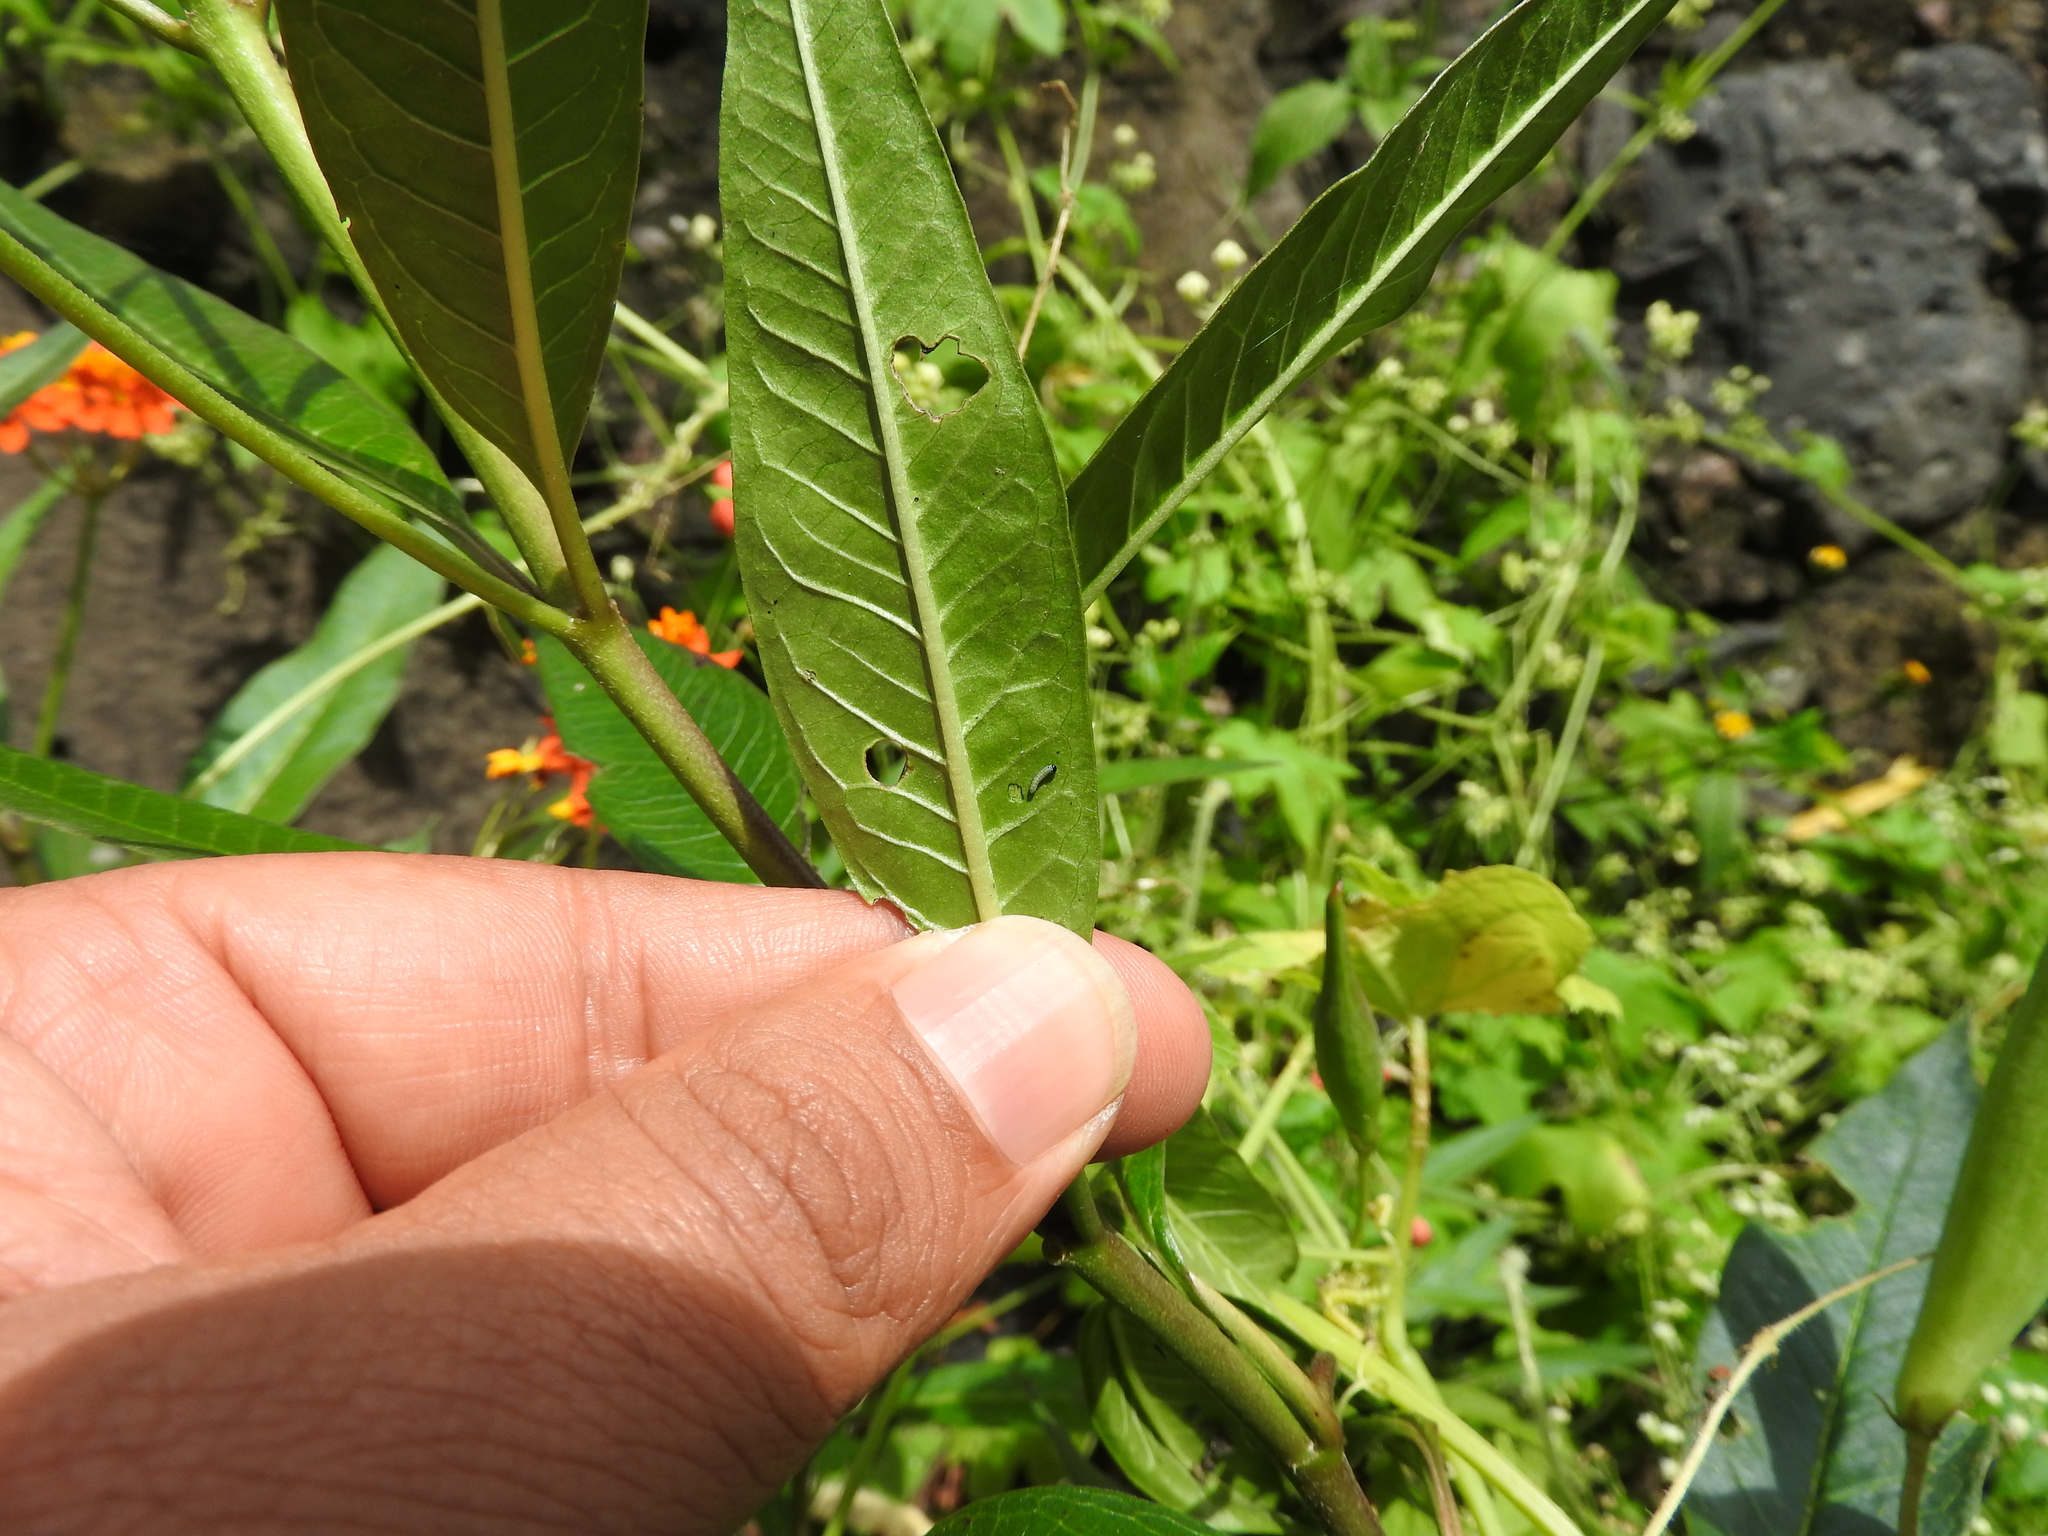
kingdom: Animalia
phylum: Arthropoda
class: Insecta
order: Lepidoptera
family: Nymphalidae
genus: Danaus
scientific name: Danaus plexippus
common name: Monarch
